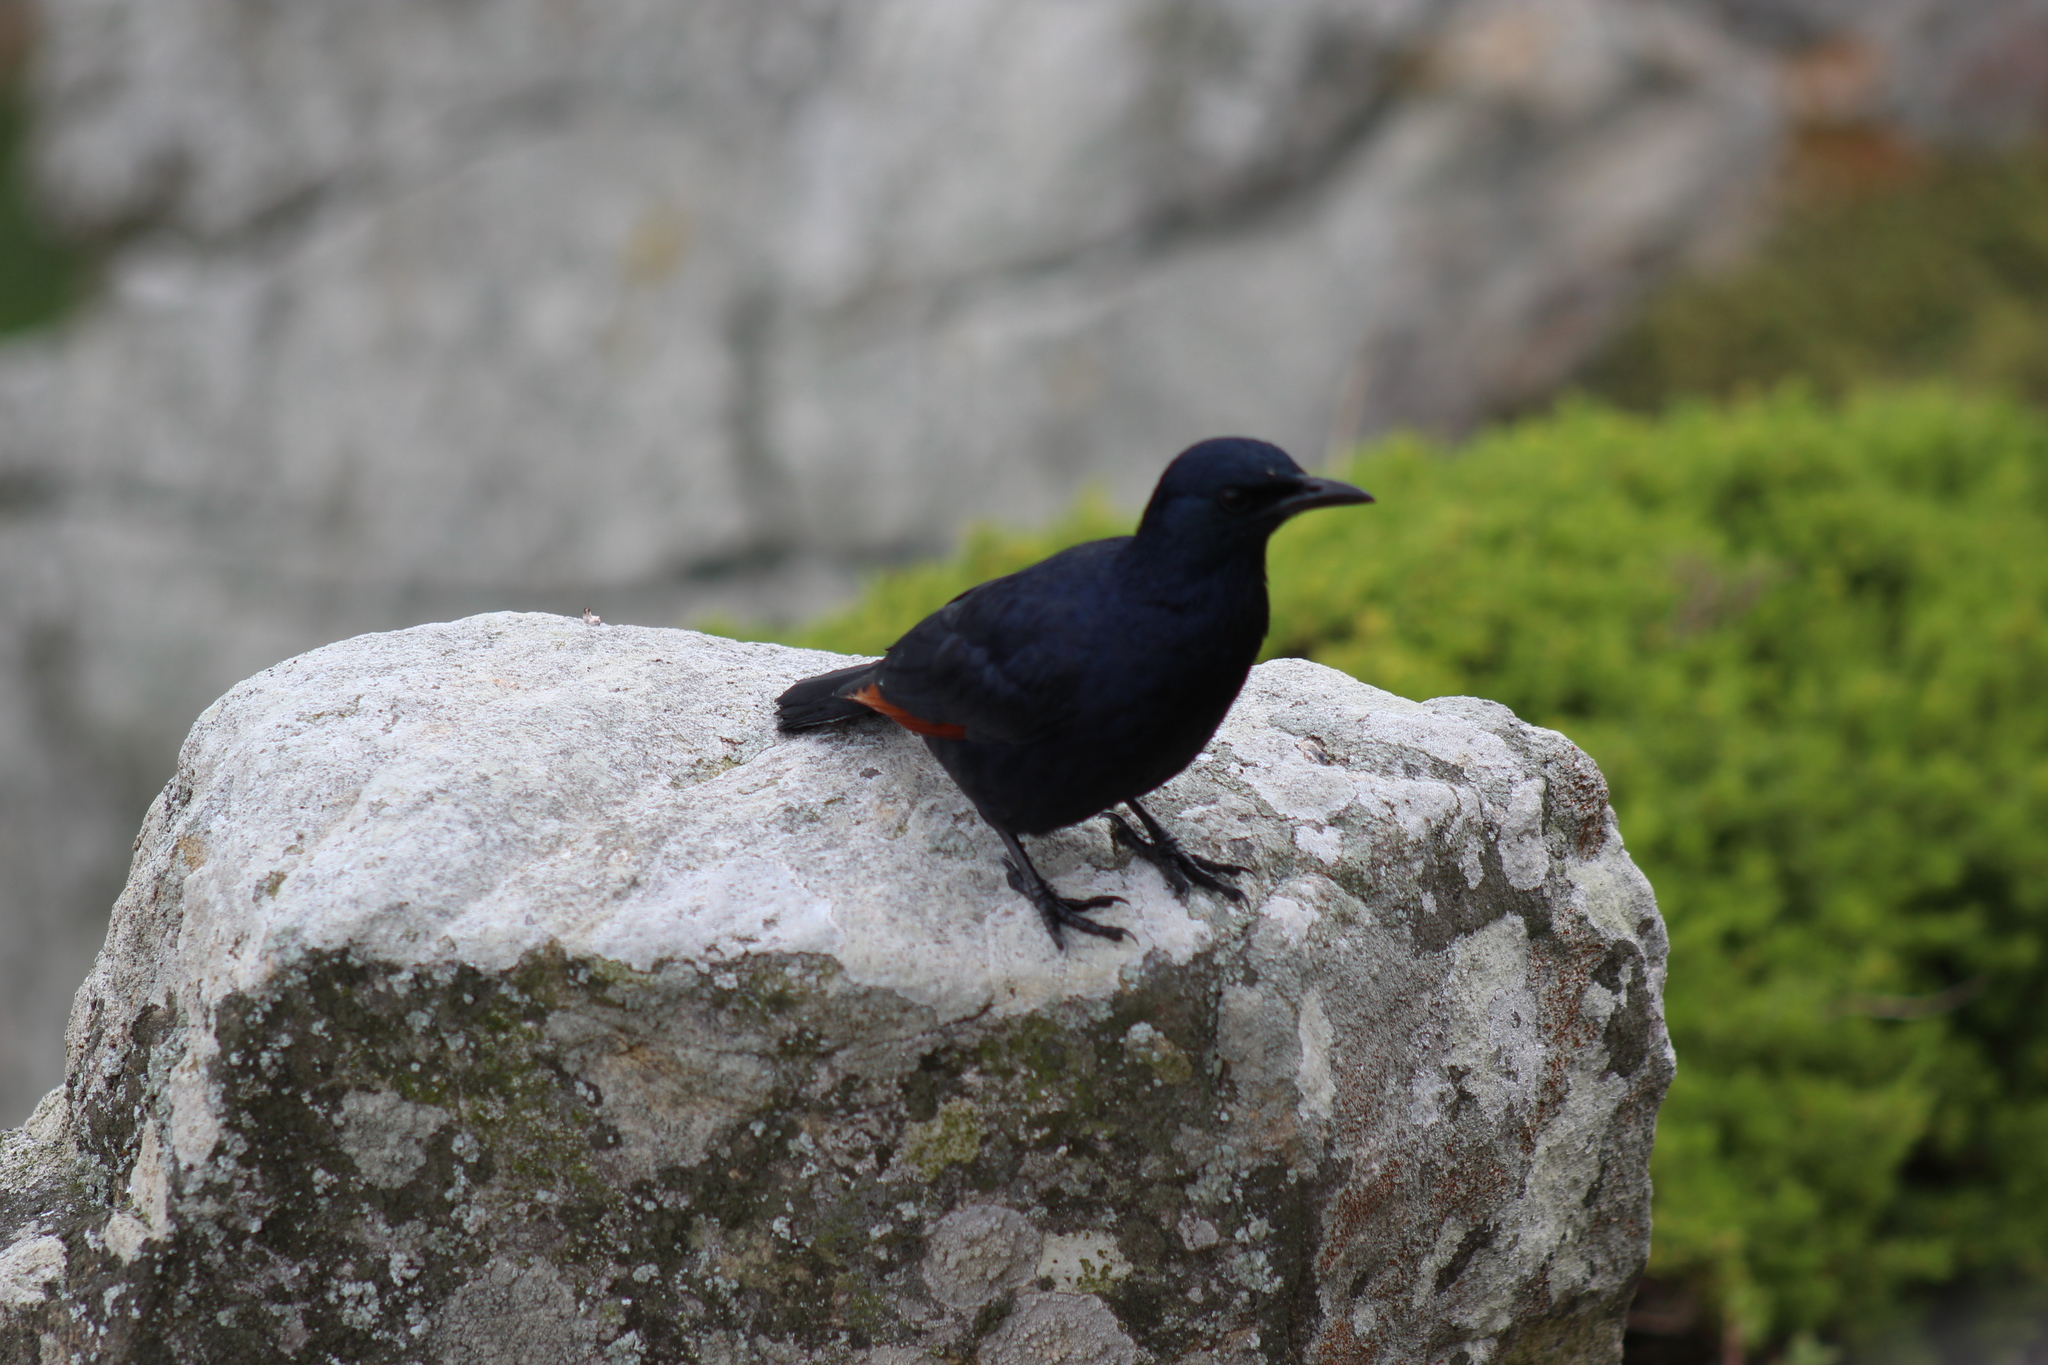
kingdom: Animalia
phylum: Chordata
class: Aves
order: Passeriformes
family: Sturnidae
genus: Onychognathus
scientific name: Onychognathus morio
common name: Red-winged starling
